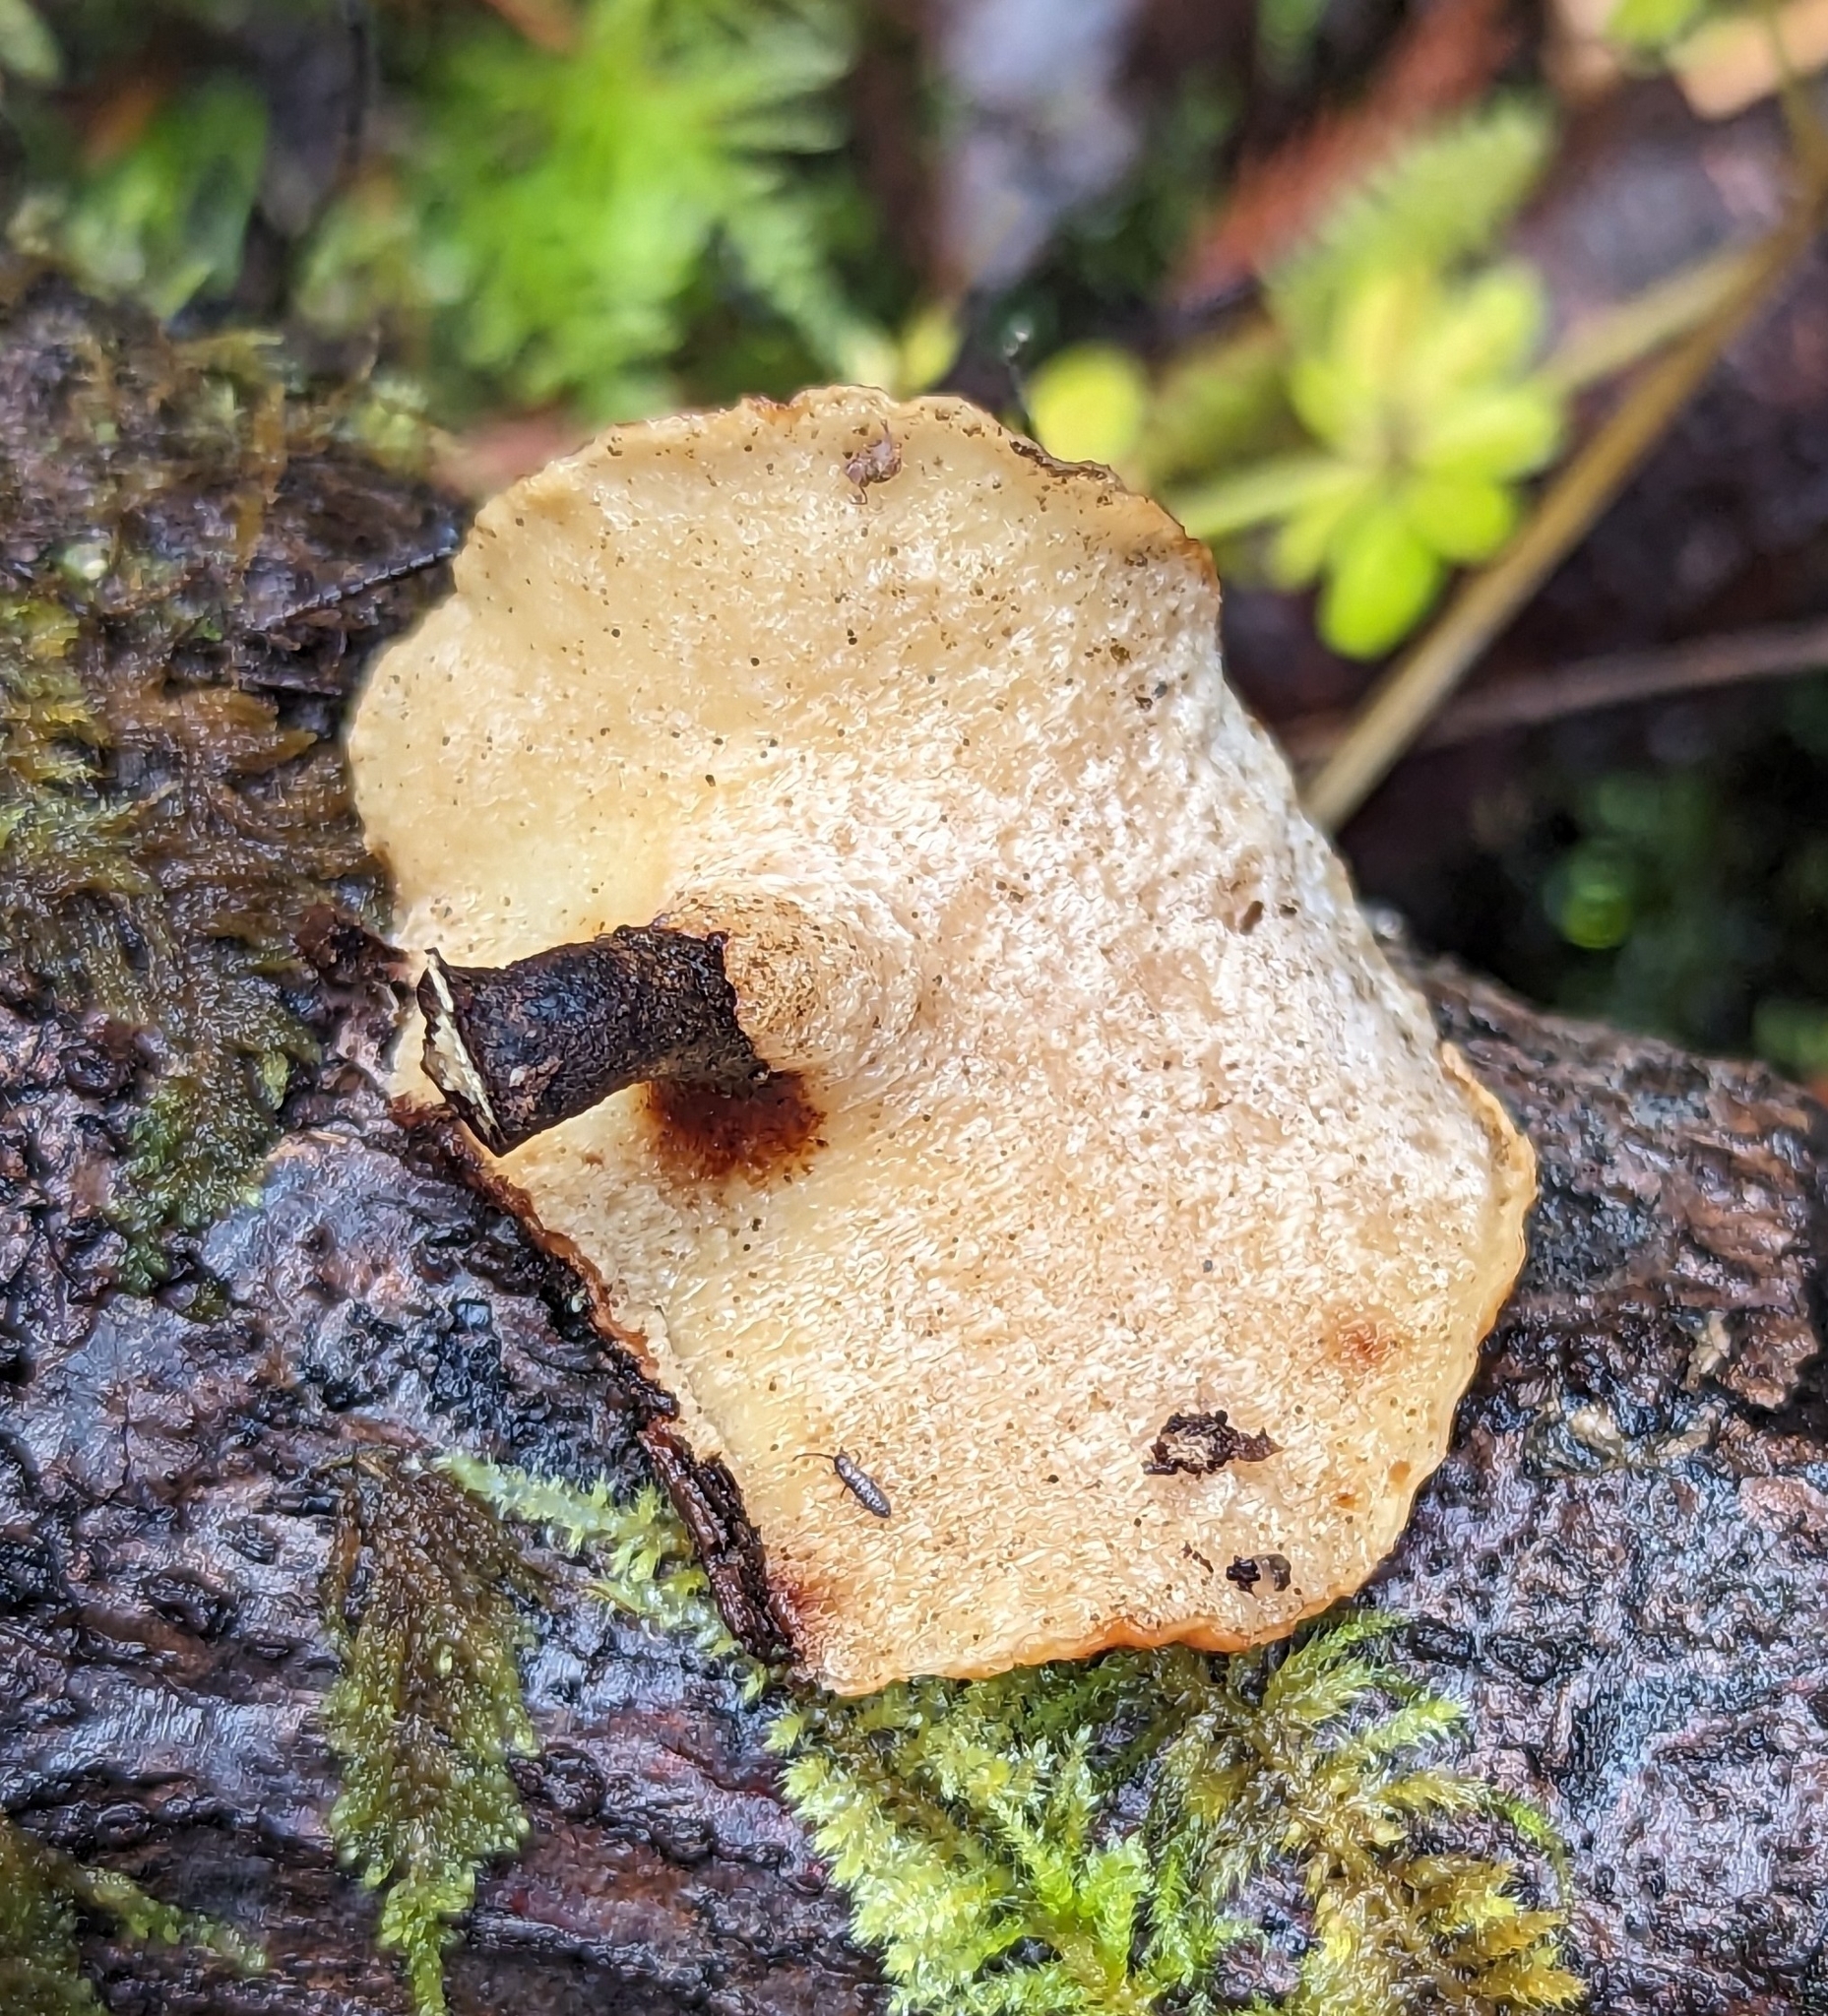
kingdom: Fungi
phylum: Basidiomycota
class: Agaricomycetes
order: Polyporales
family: Polyporaceae
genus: Picipes
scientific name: Picipes badius
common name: Bay polypore
